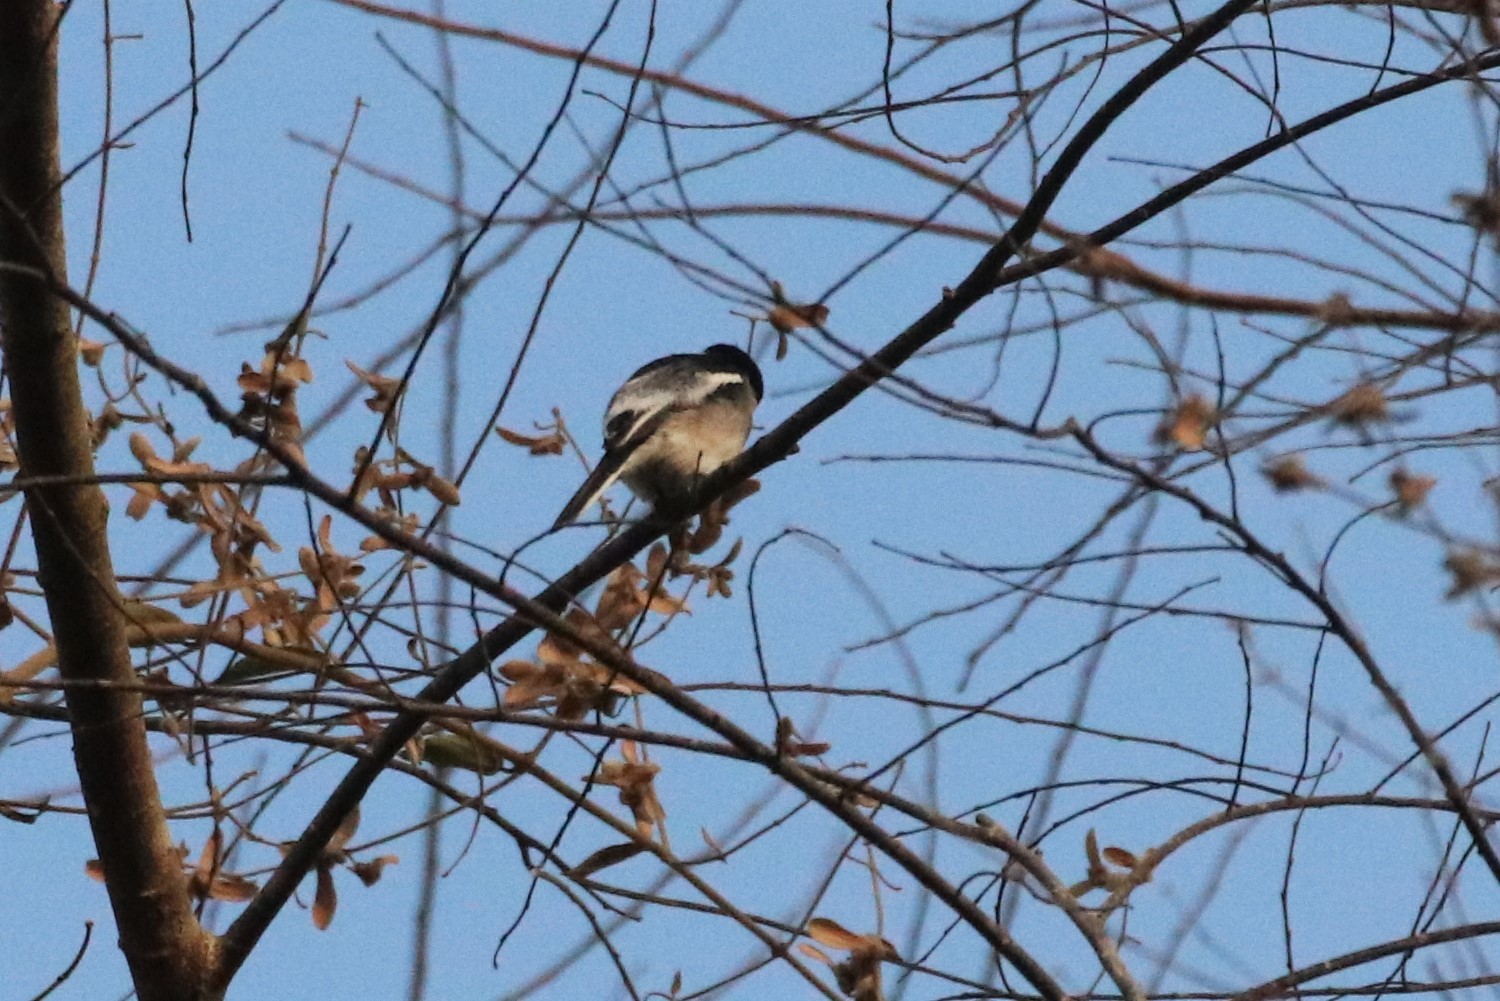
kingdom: Animalia
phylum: Chordata
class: Aves
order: Passeriformes
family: Tephrodornithidae
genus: Hemipus
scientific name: Hemipus picatus
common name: Bar-winged flycatcher-shrike
